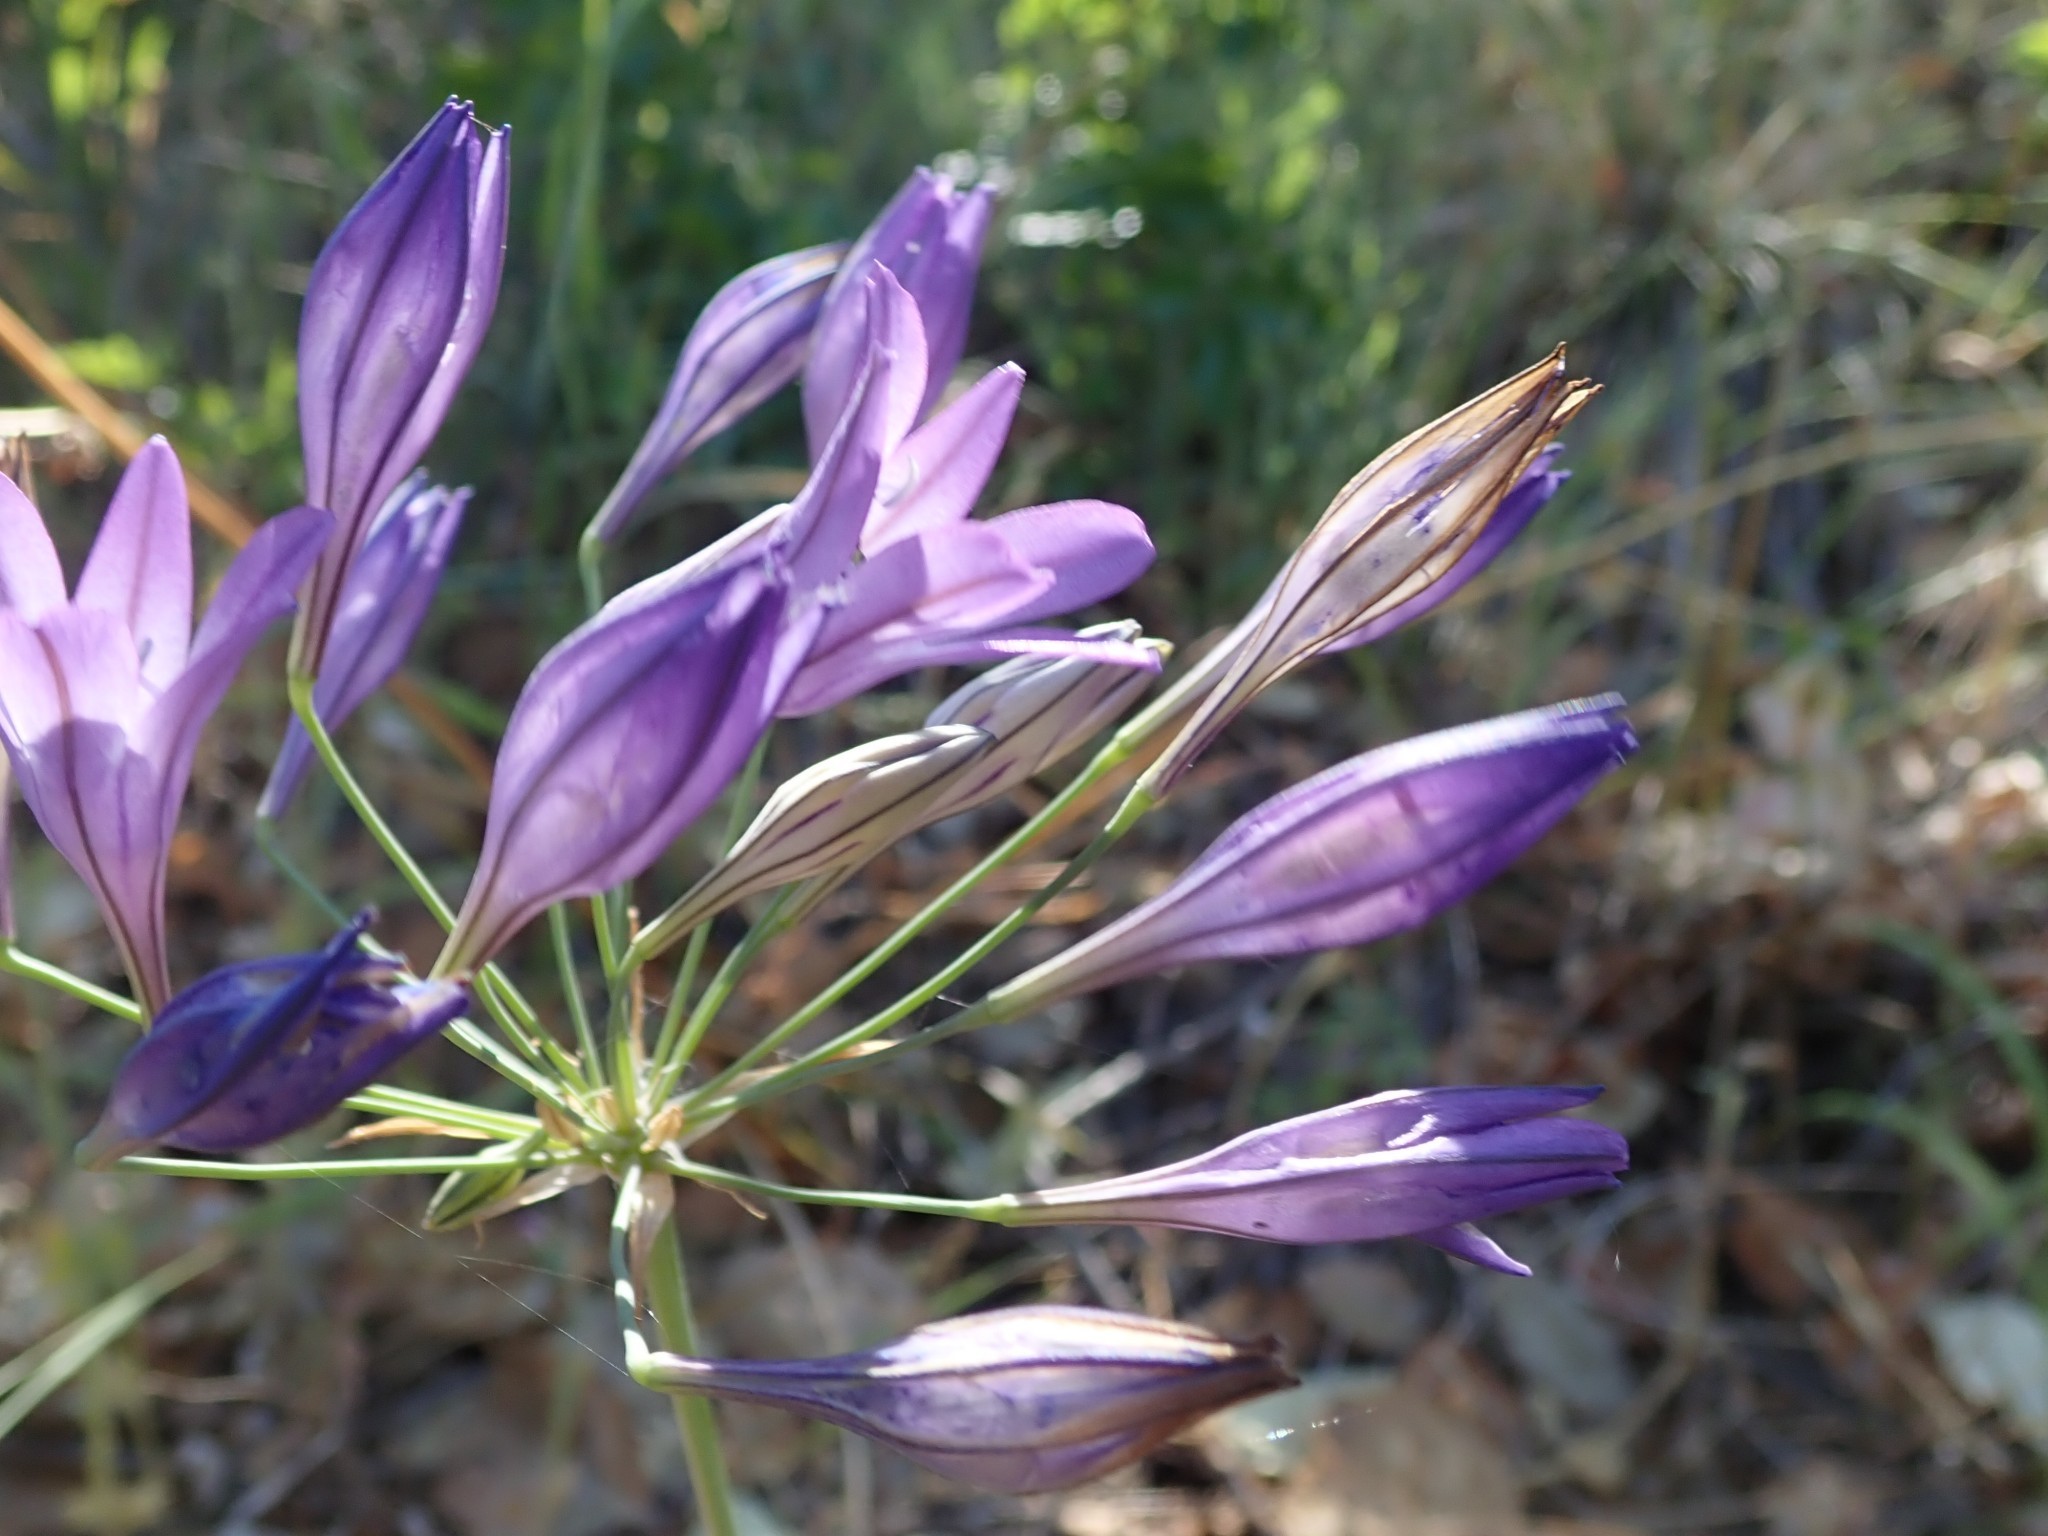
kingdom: Plantae
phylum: Tracheophyta
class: Liliopsida
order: Asparagales
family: Asparagaceae
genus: Triteleia
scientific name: Triteleia laxa
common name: Triplet-lily
